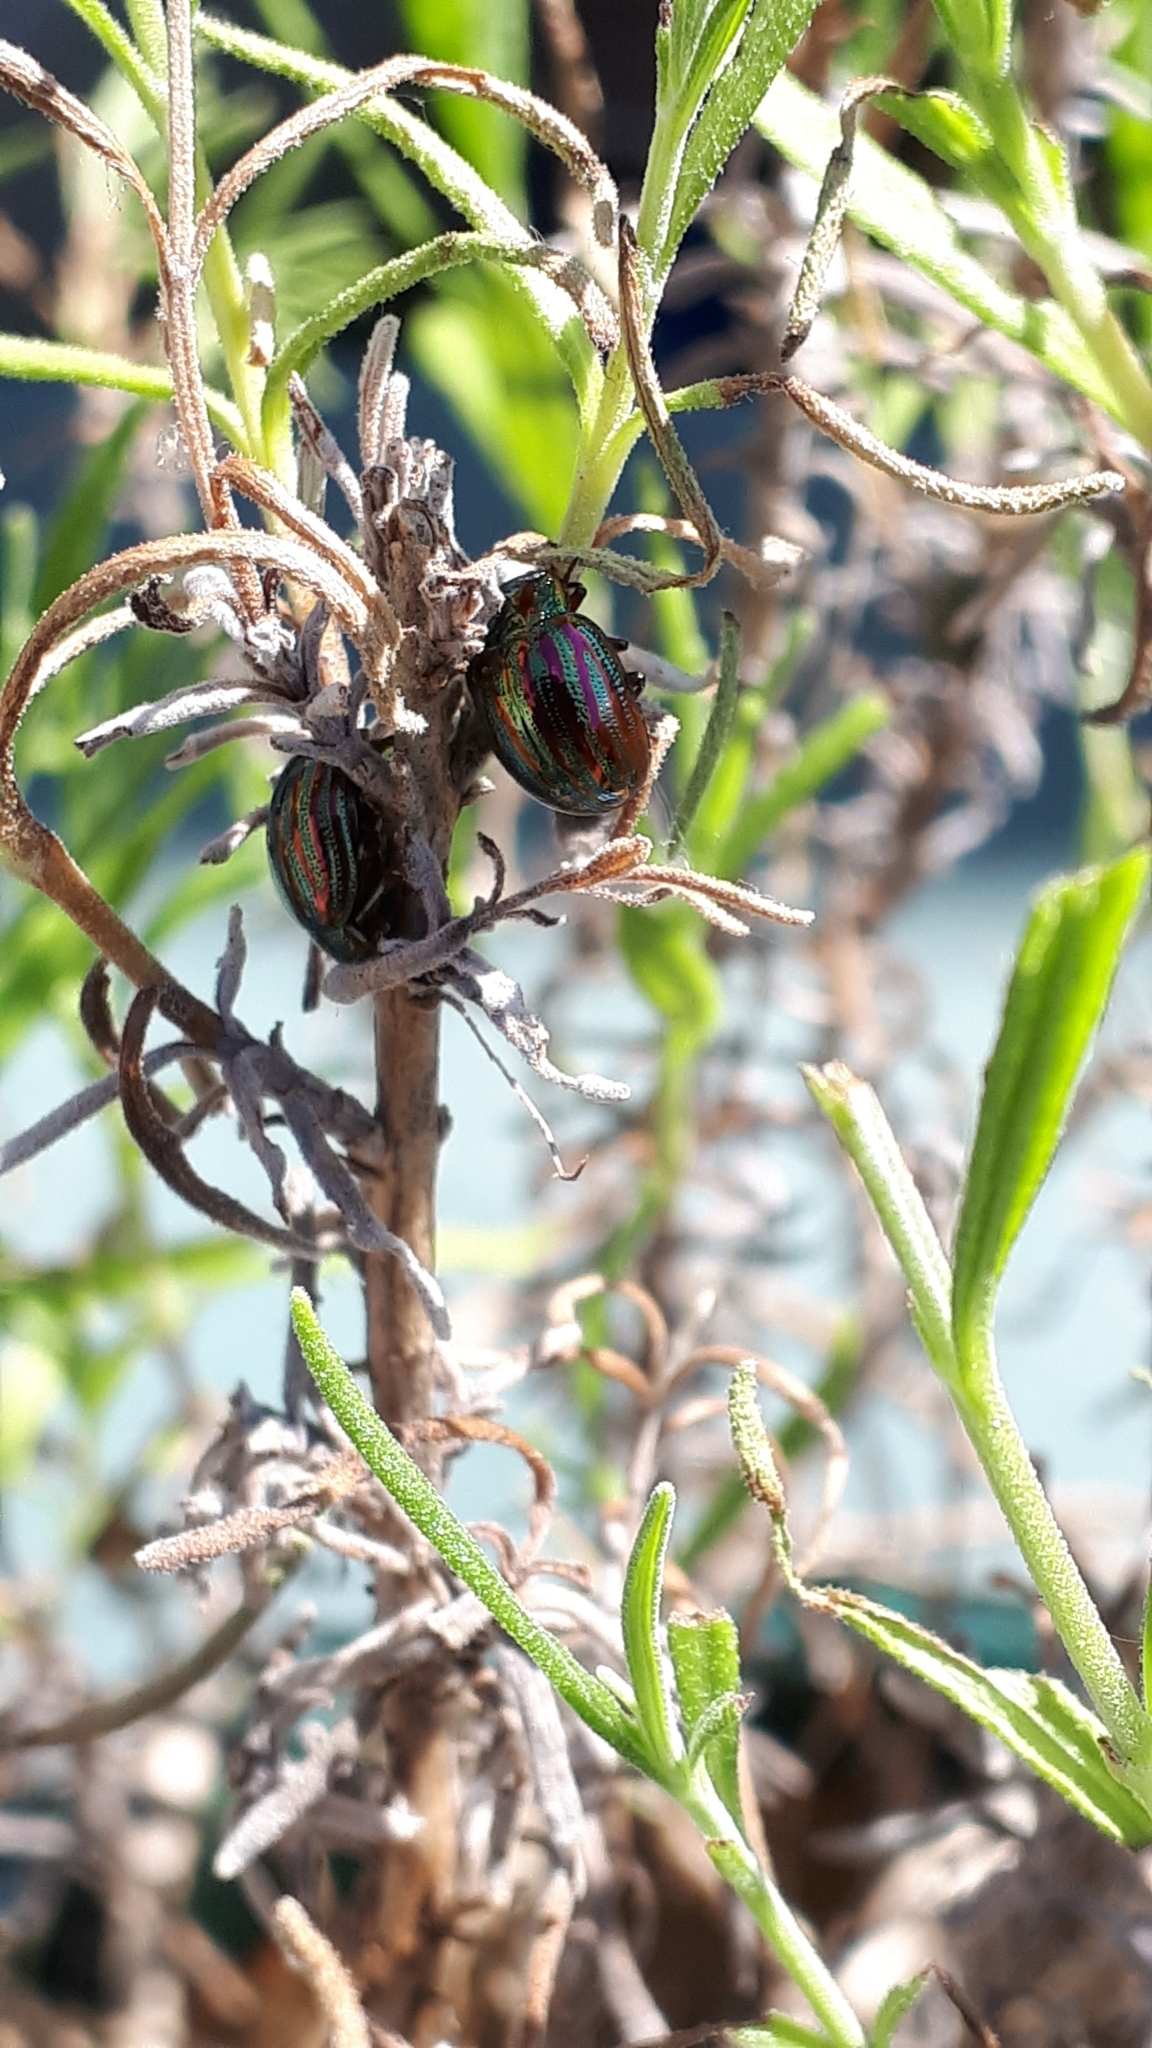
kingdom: Animalia
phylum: Arthropoda
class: Insecta
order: Coleoptera
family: Chrysomelidae
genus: Chrysolina
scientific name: Chrysolina americana
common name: Rosemary beetle
